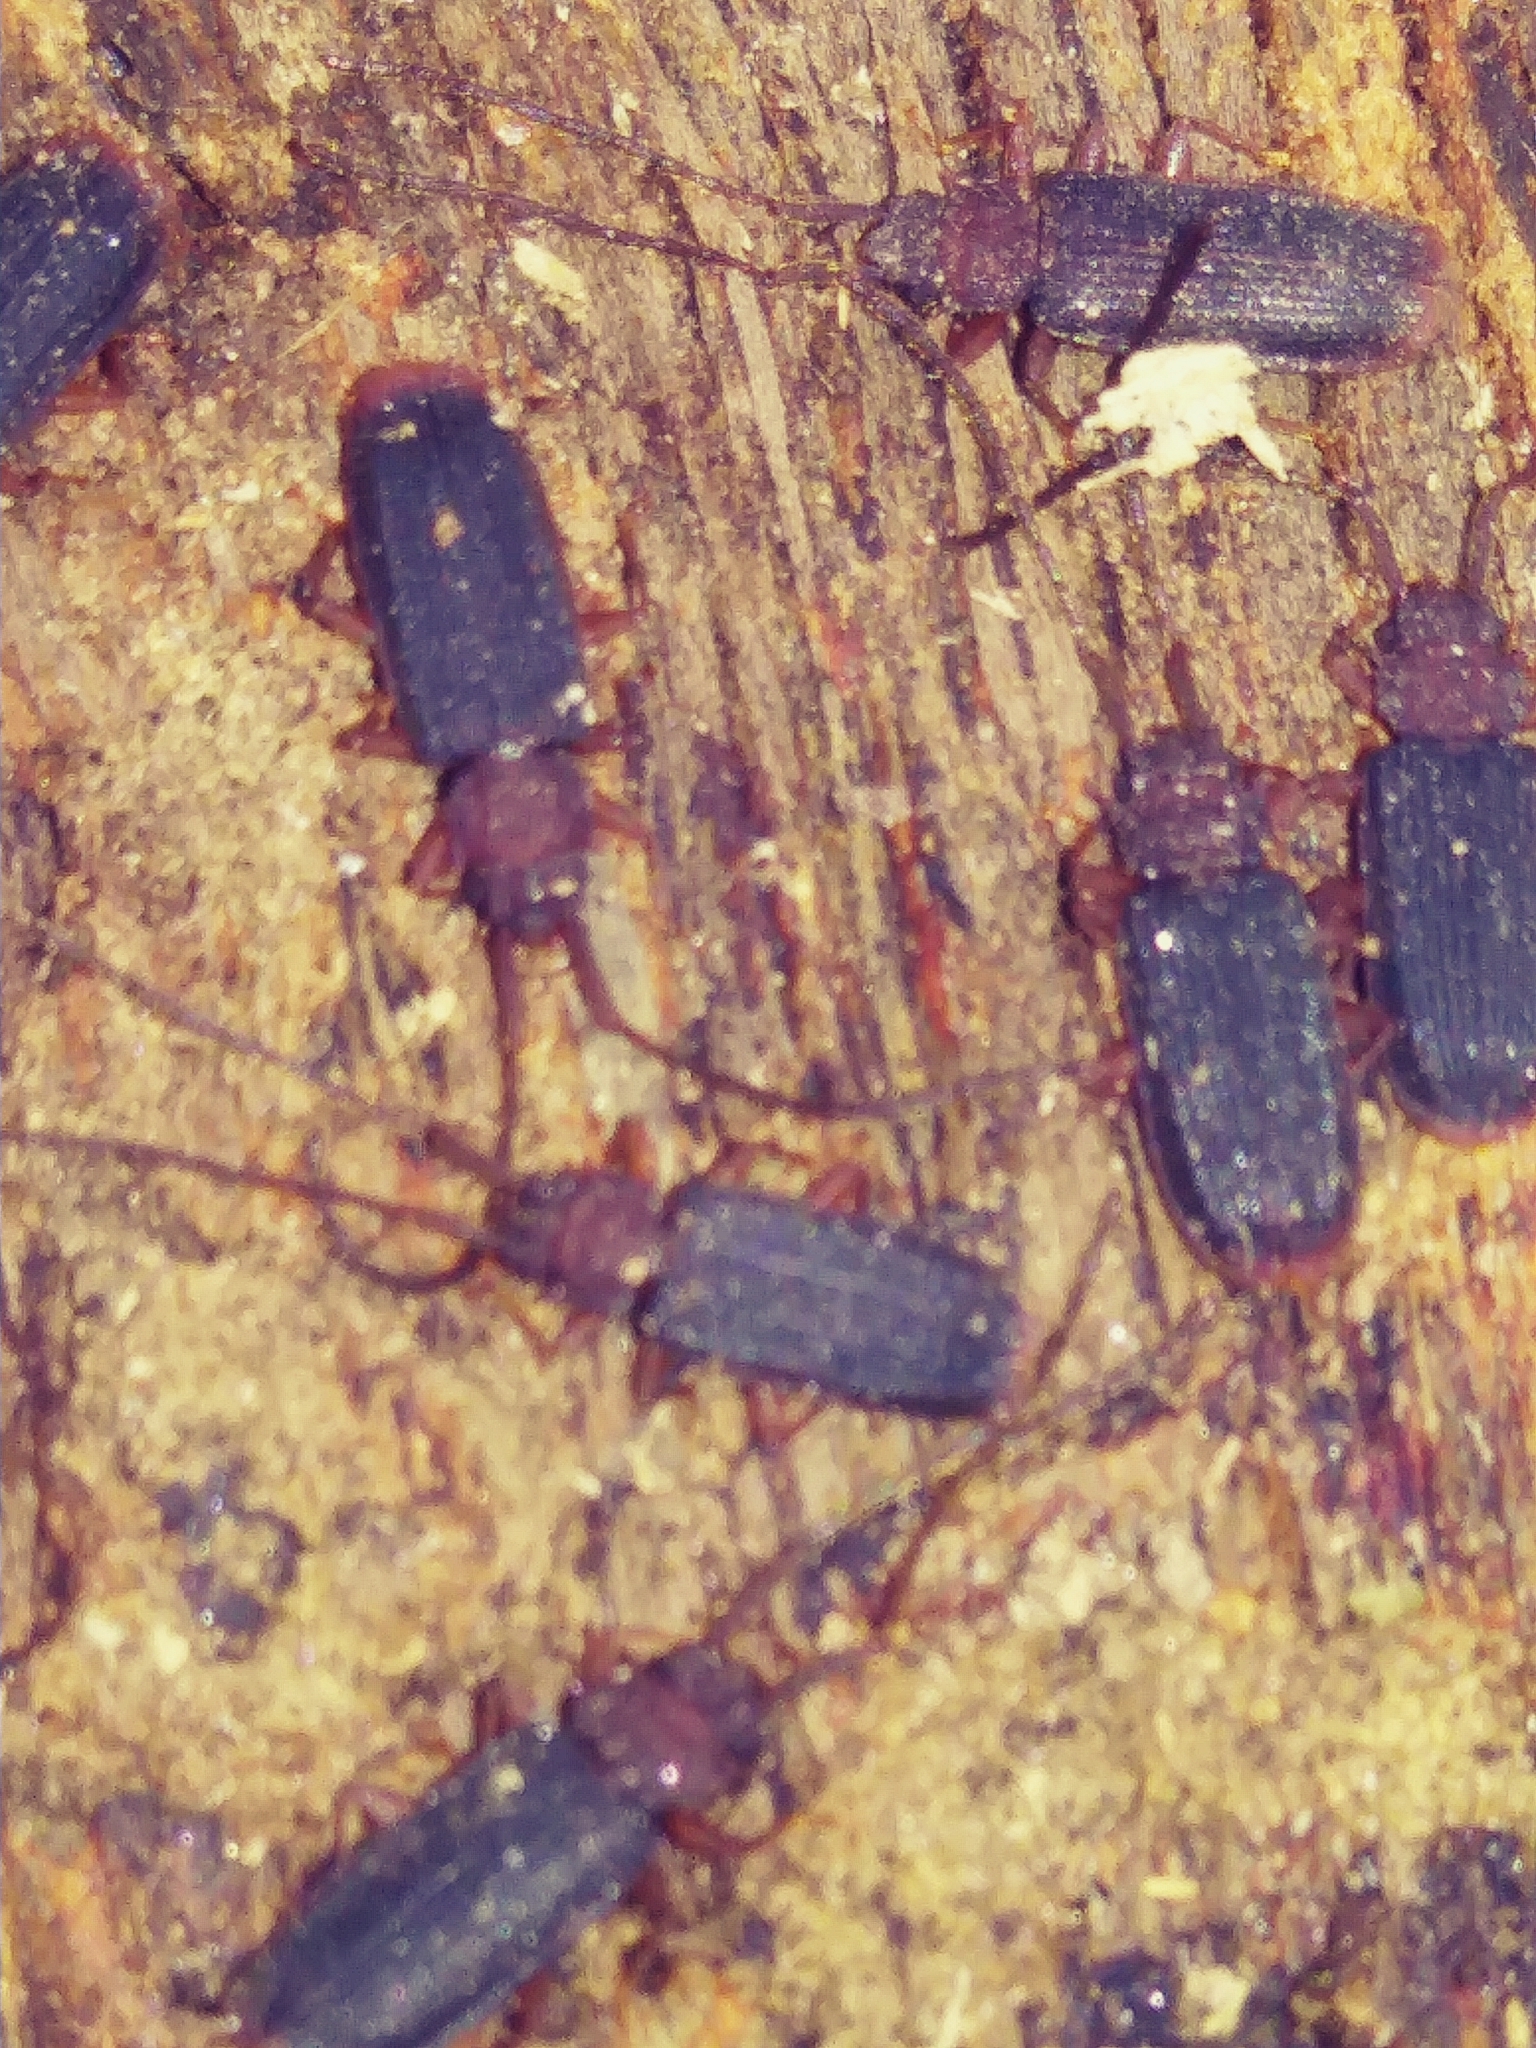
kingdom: Animalia
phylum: Arthropoda
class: Insecta
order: Coleoptera
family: Silvanidae
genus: Uleiota
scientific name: Uleiota dubia
